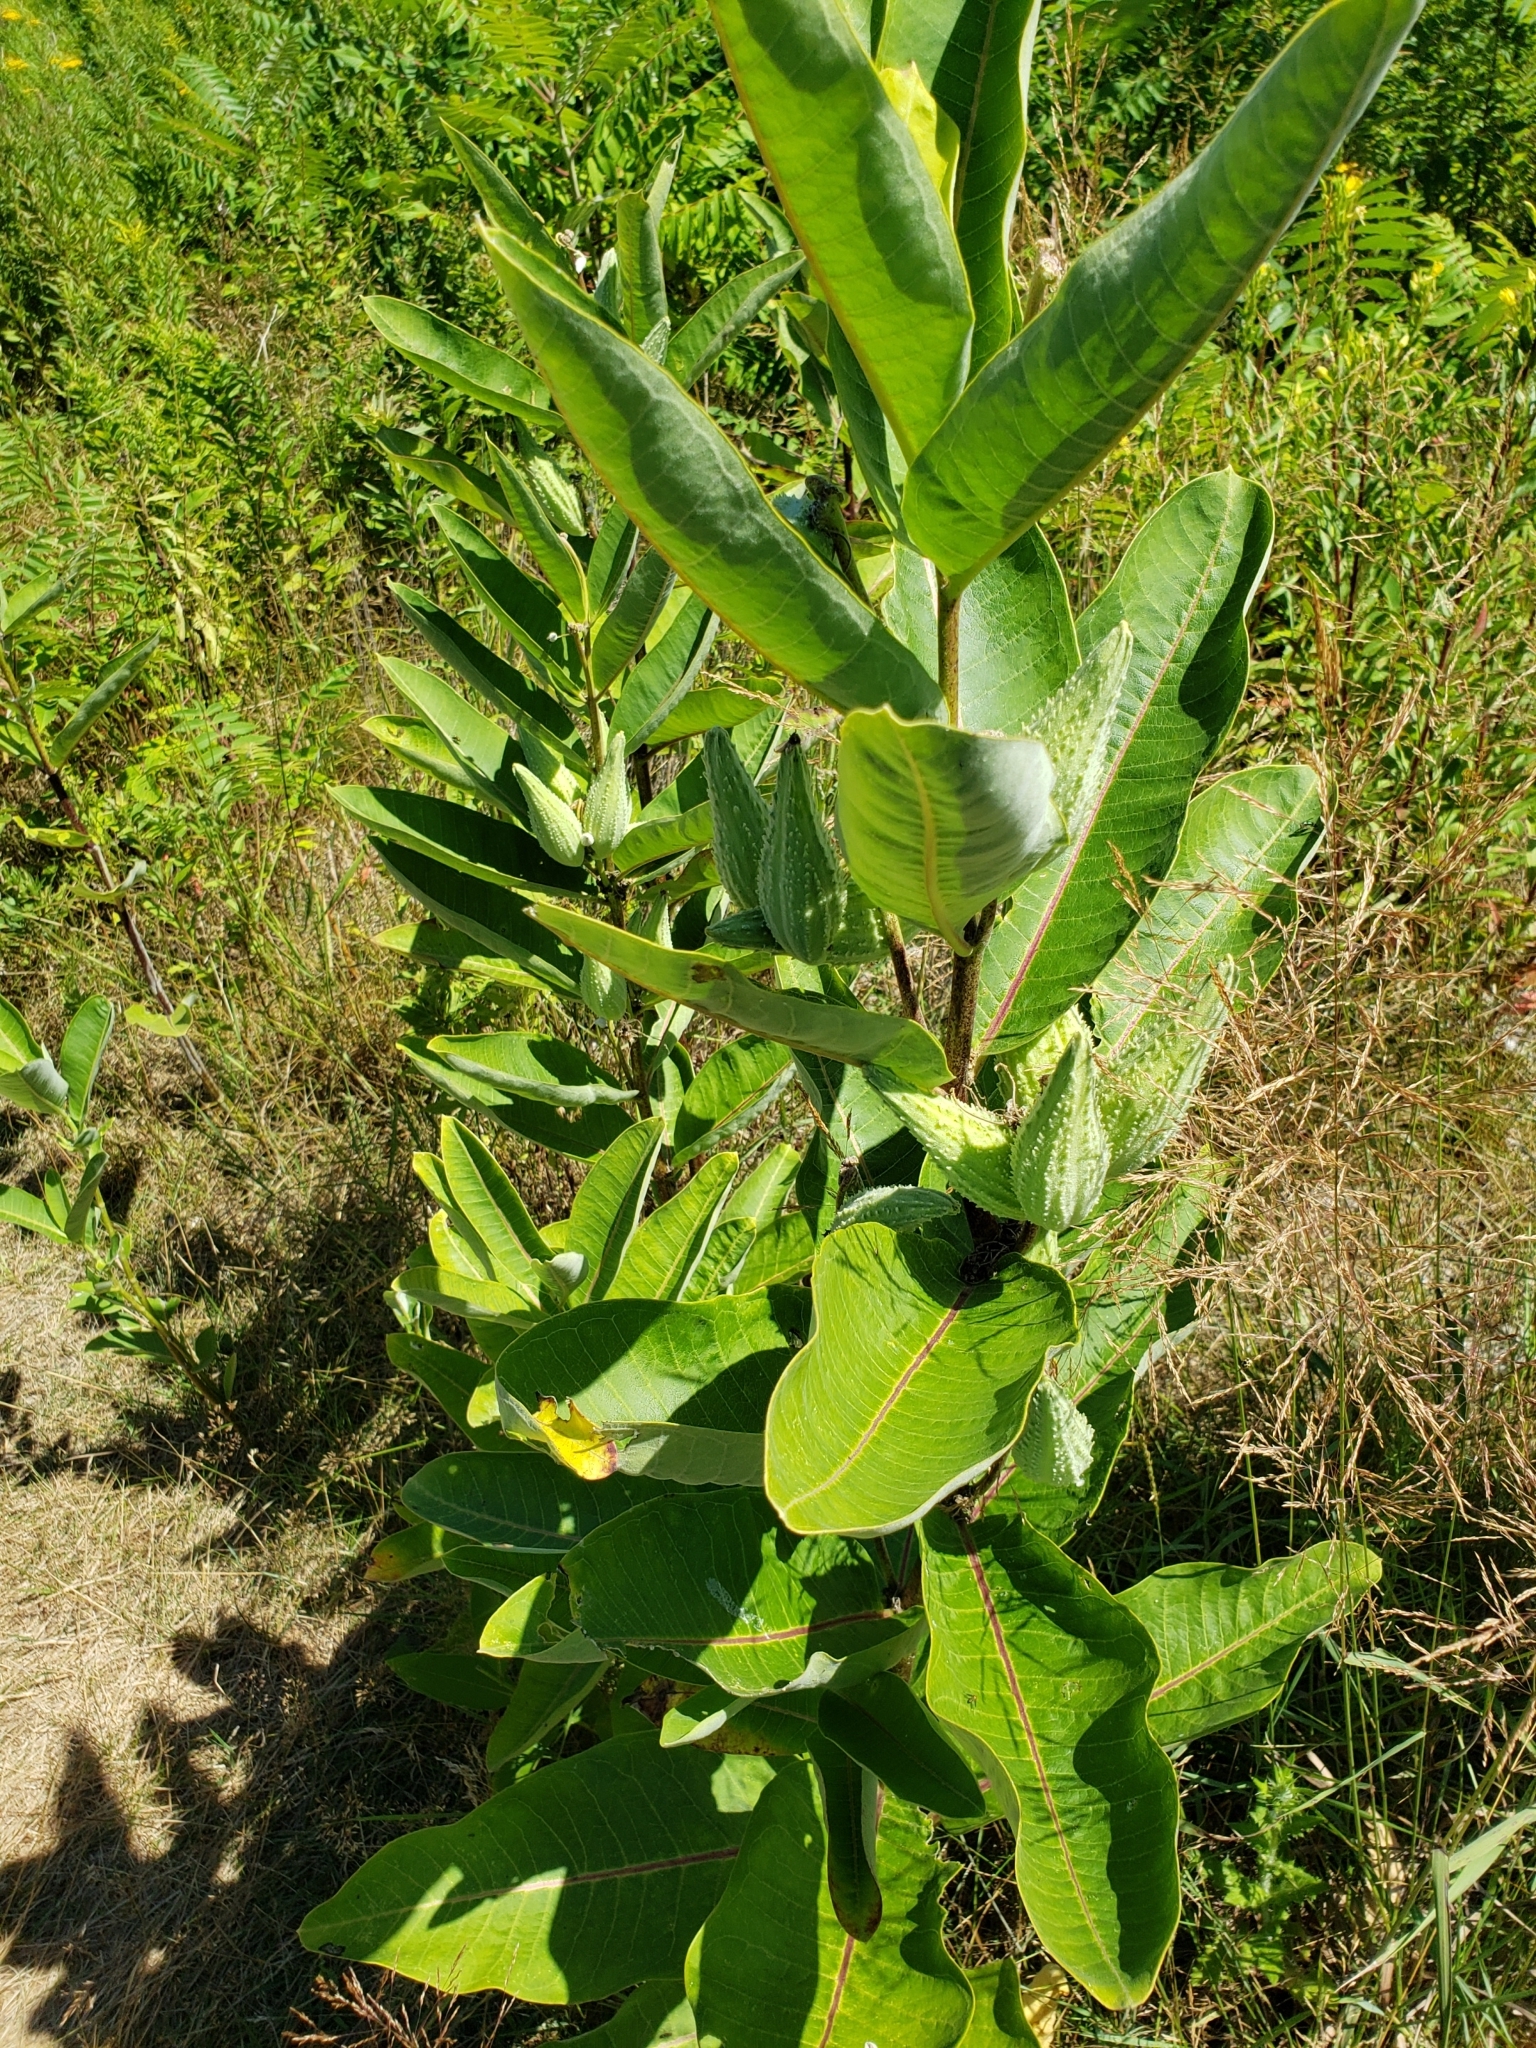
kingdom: Plantae
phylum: Tracheophyta
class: Magnoliopsida
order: Gentianales
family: Apocynaceae
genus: Asclepias
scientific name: Asclepias syriaca
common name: Common milkweed
